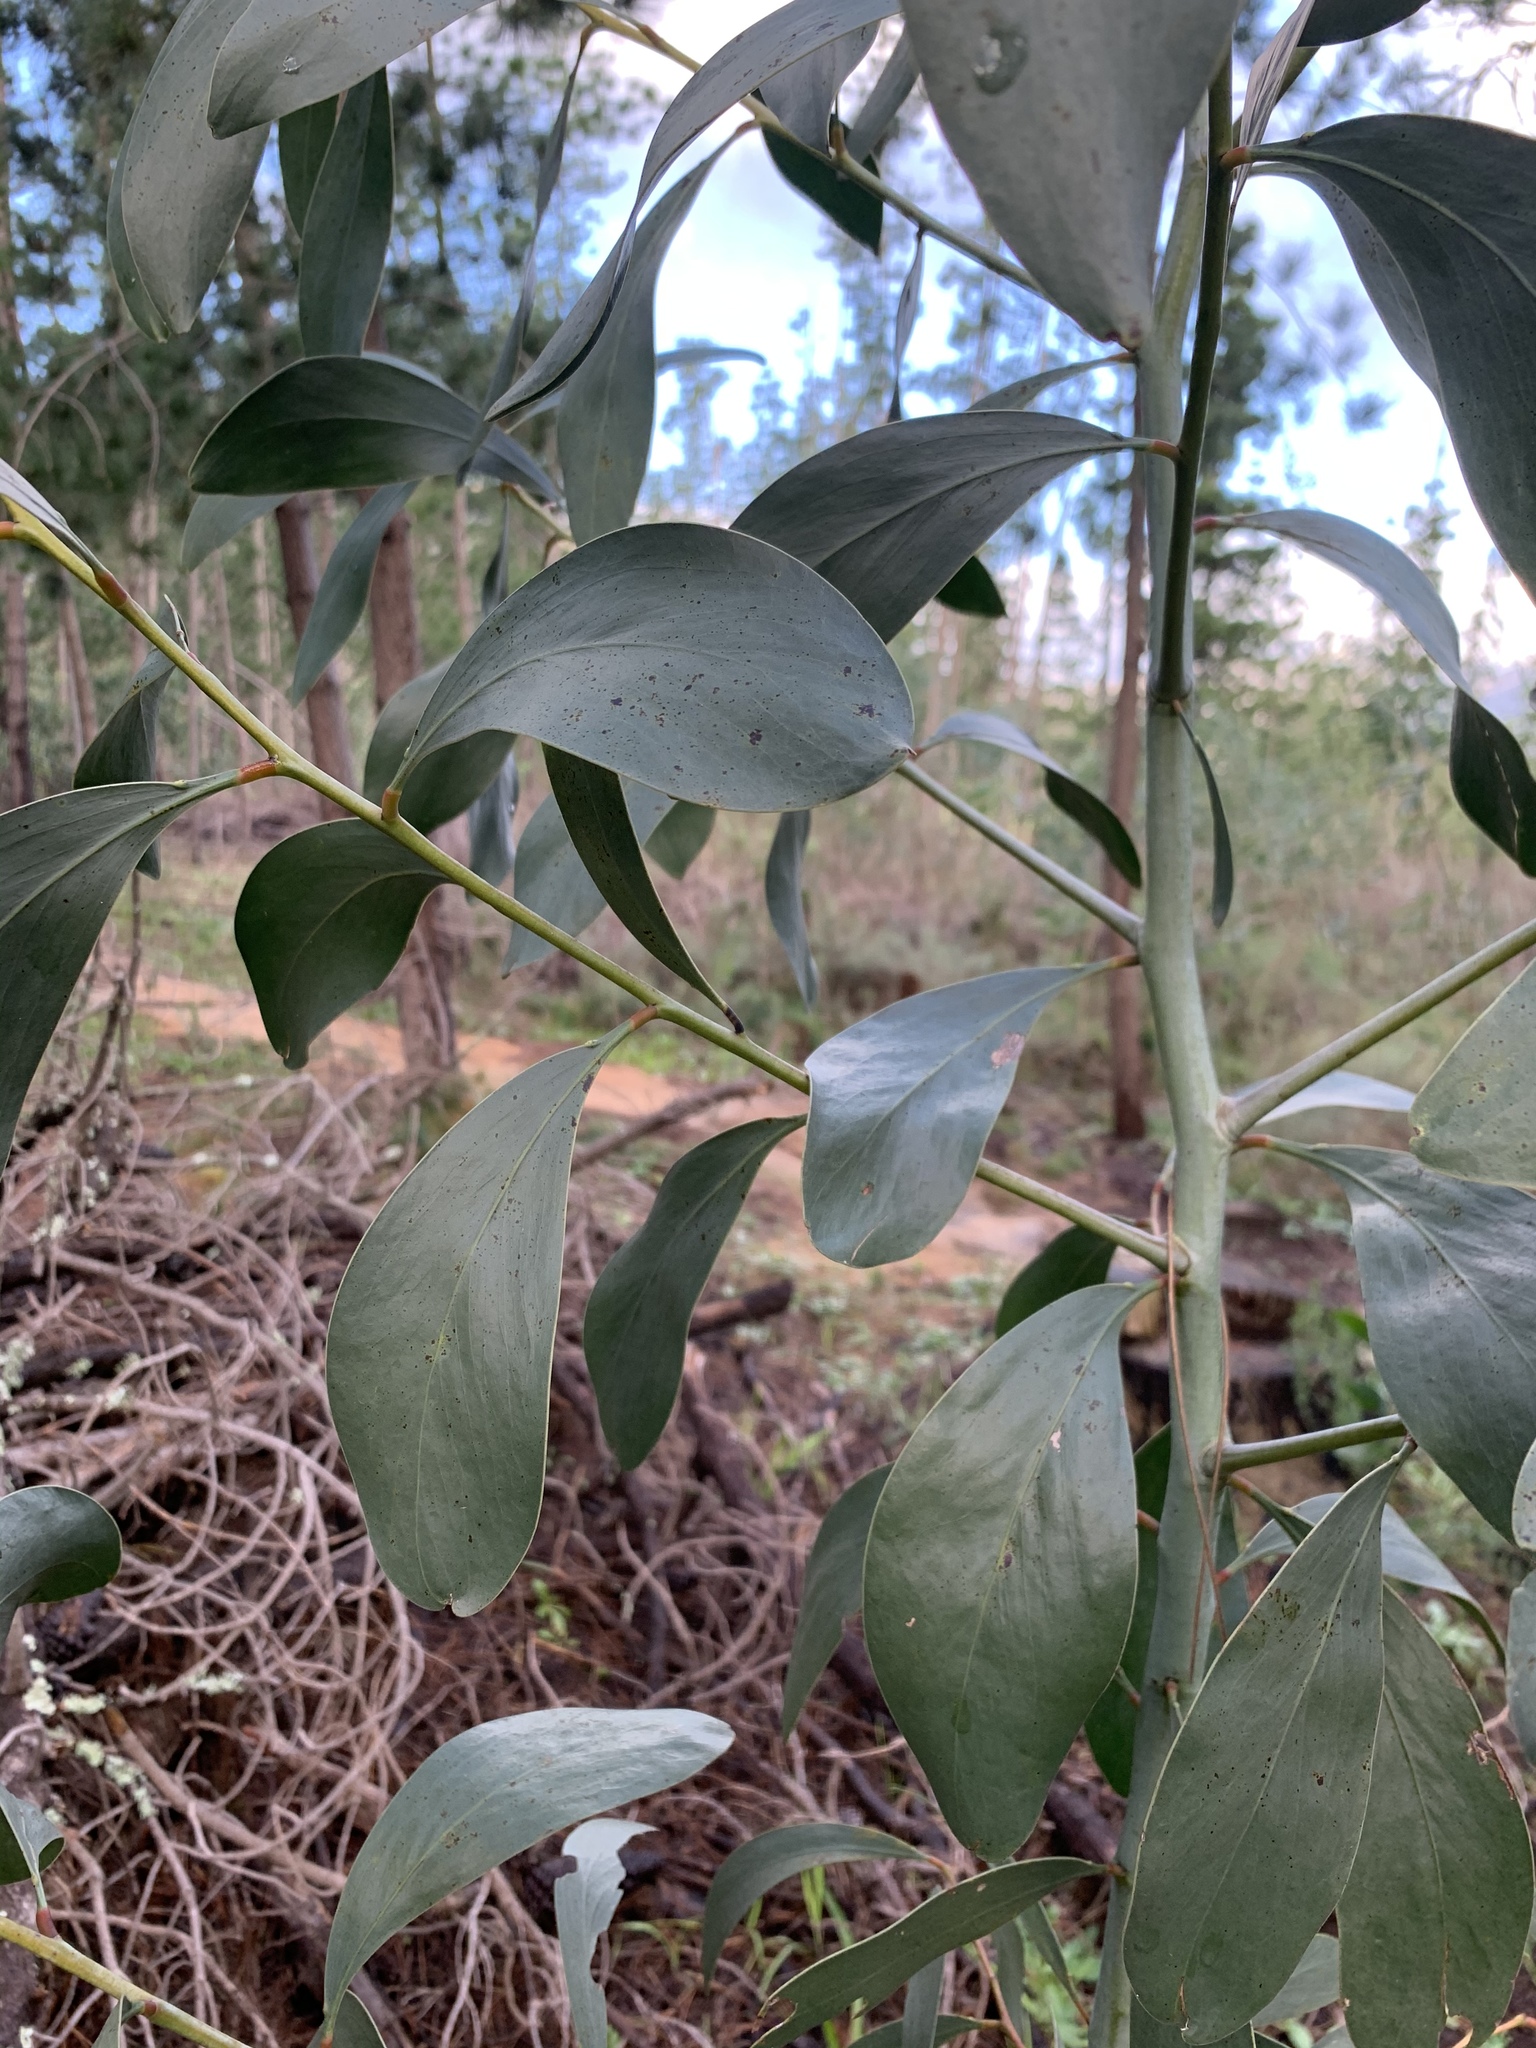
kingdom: Plantae
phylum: Tracheophyta
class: Magnoliopsida
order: Fabales
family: Fabaceae
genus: Acacia
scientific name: Acacia pycnantha
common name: Golden wattle
